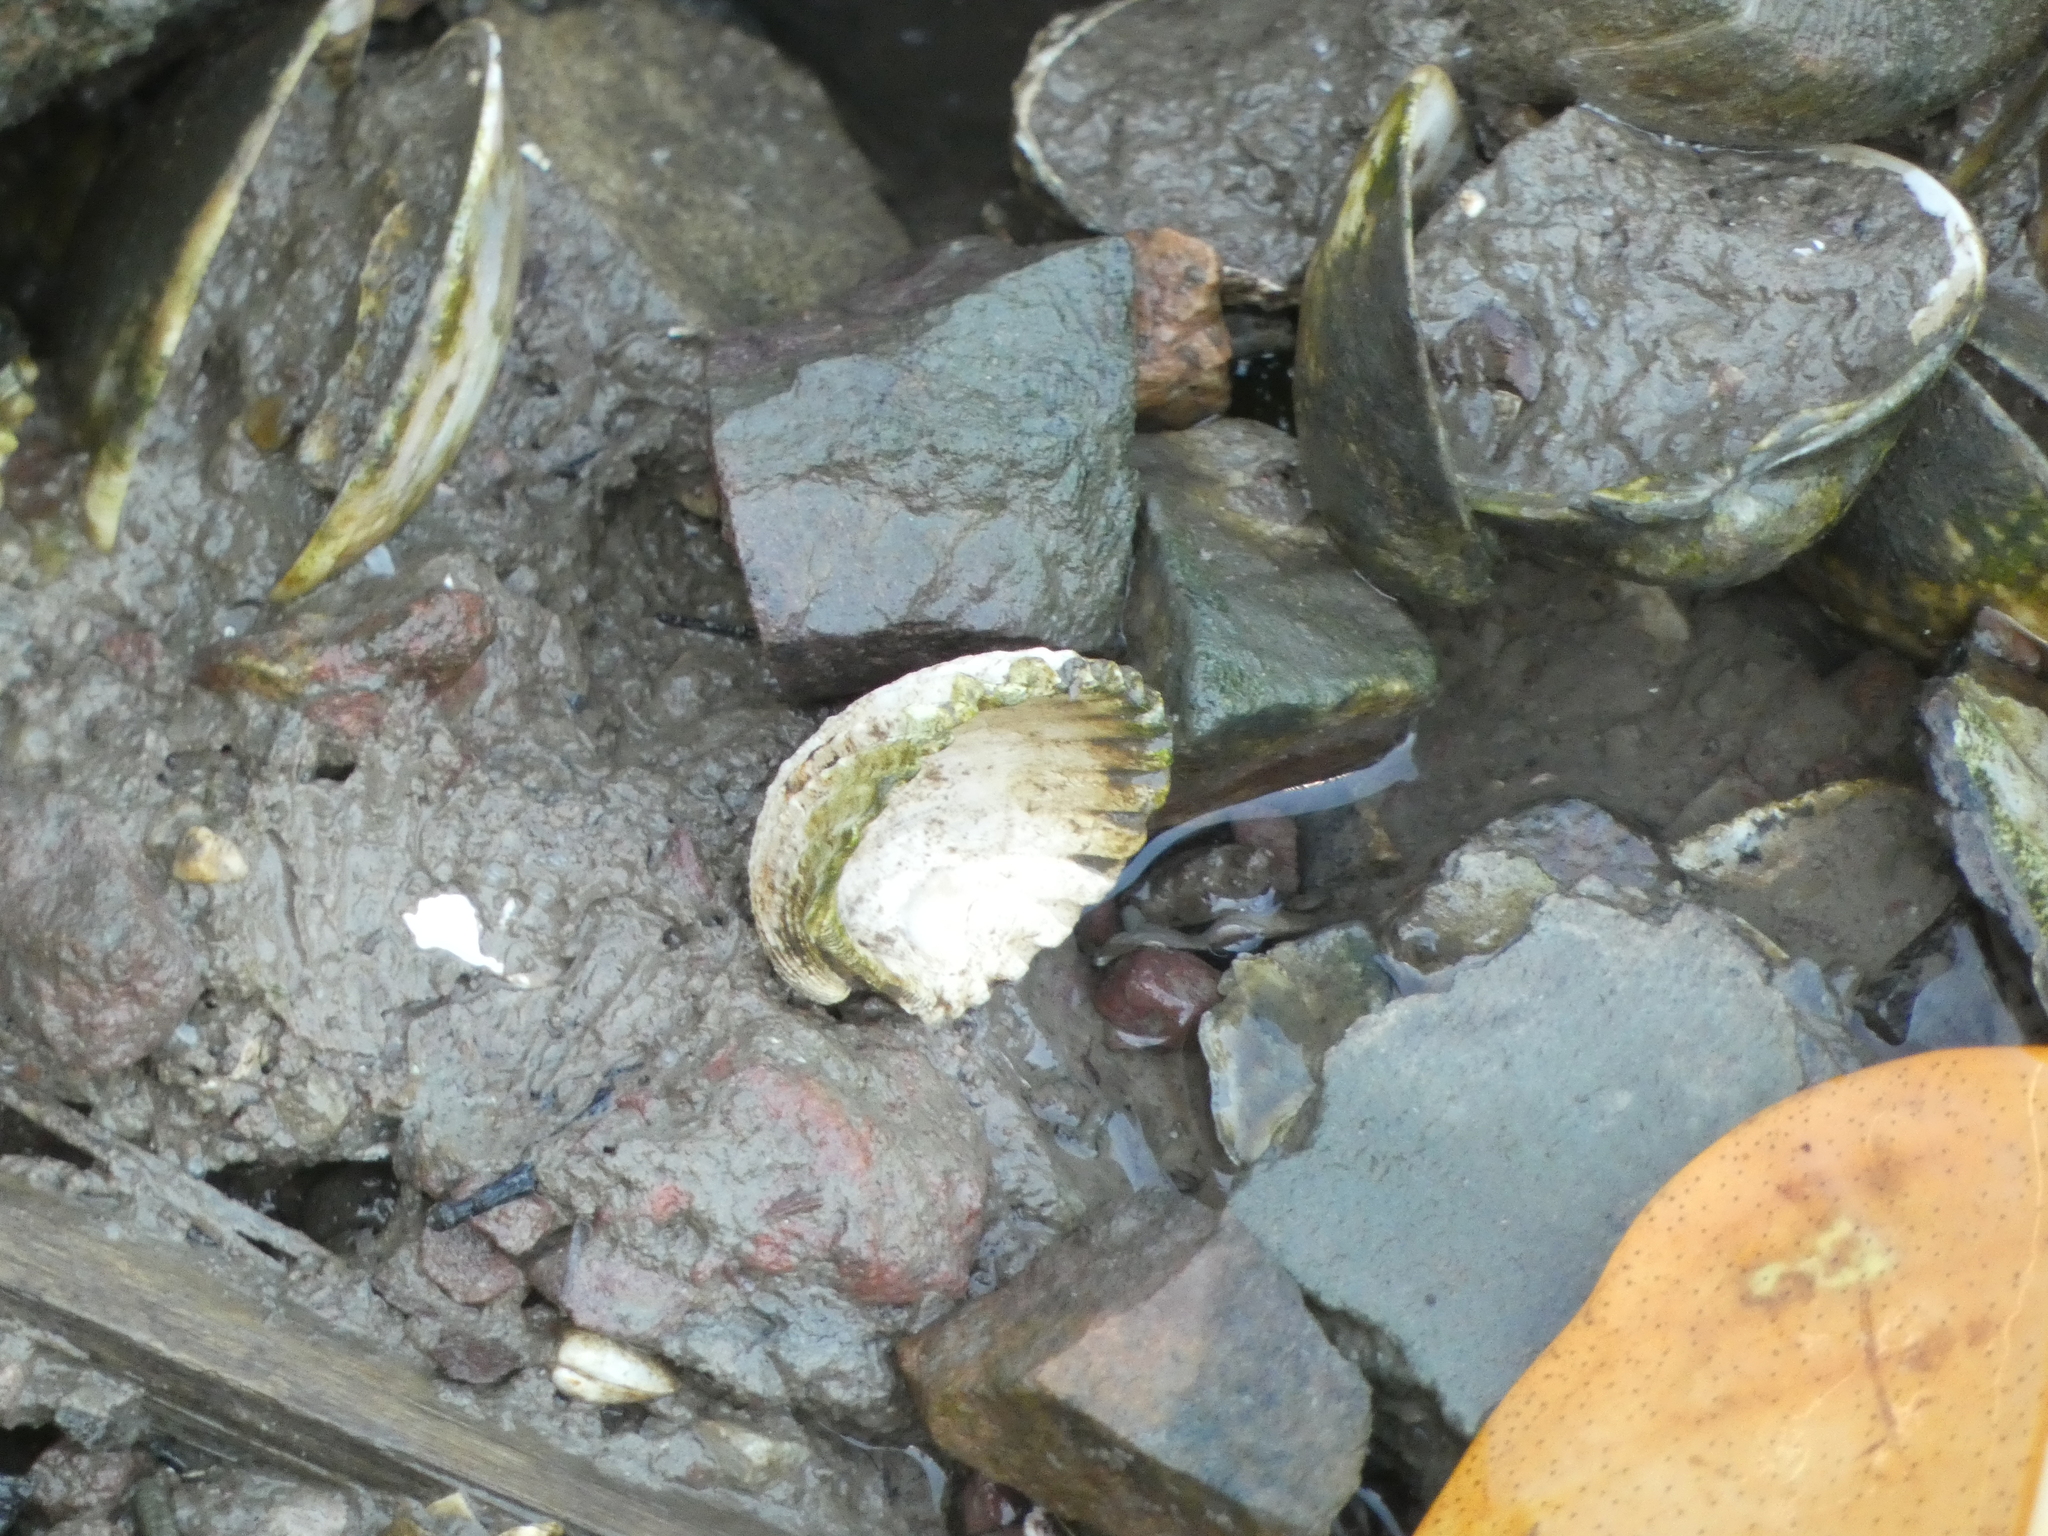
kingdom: Animalia
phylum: Mollusca
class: Bivalvia
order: Arcida
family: Arcidae
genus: Tegillarca
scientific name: Tegillarca granosa
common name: Blood clam
